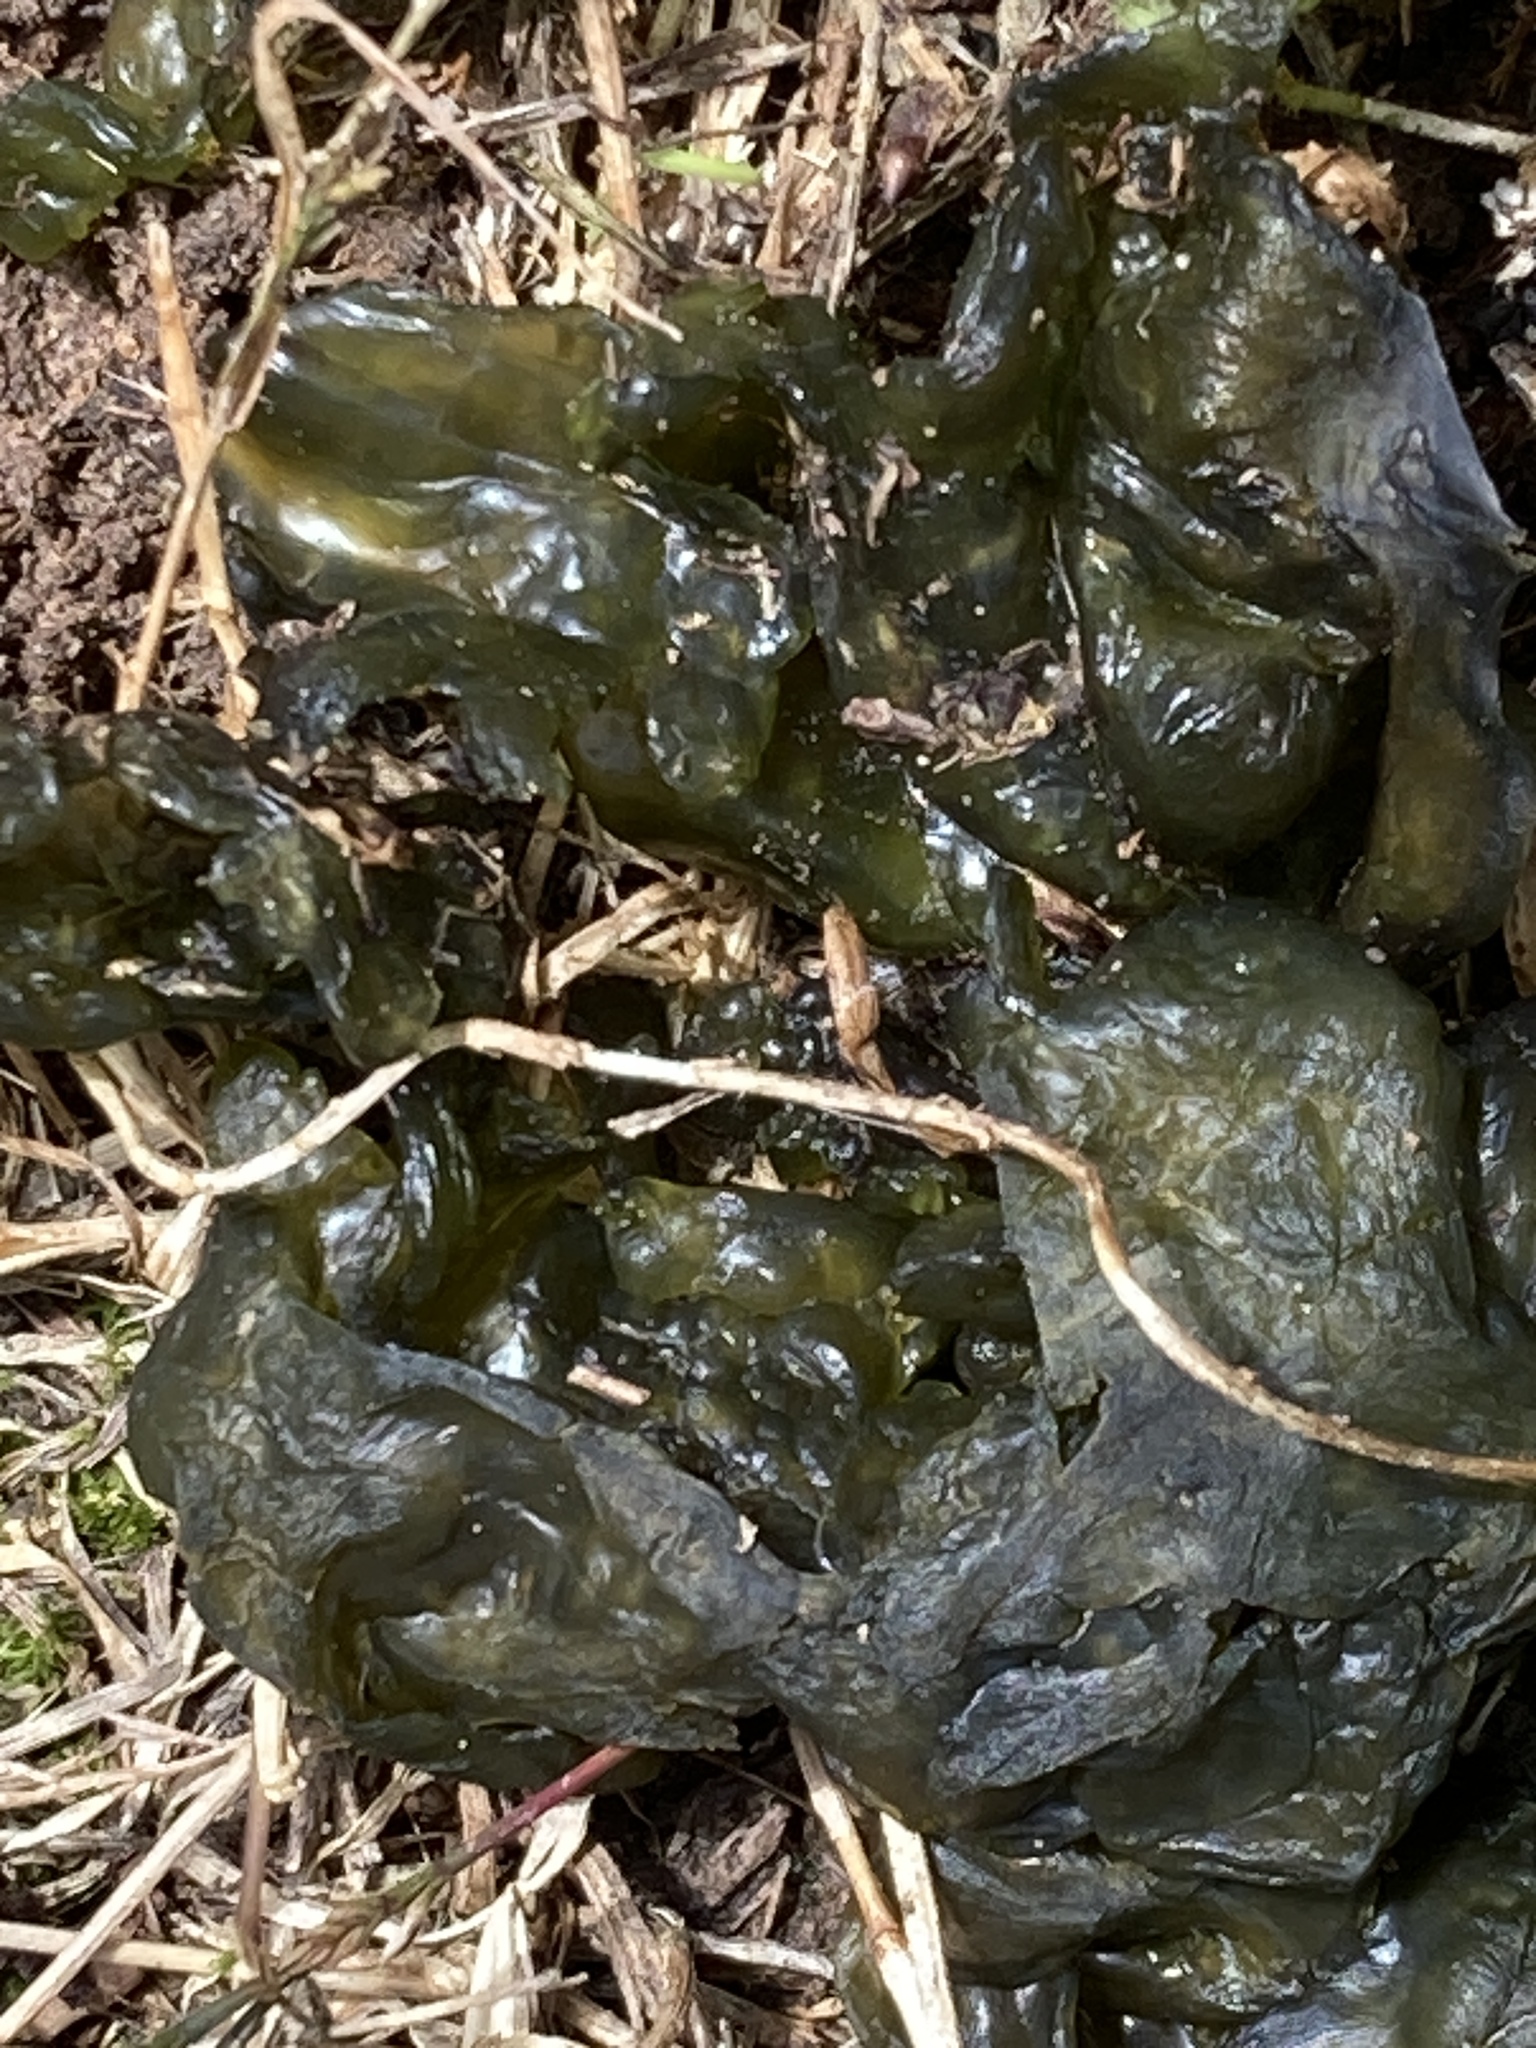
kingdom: Bacteria
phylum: Cyanobacteria
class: Cyanobacteriia
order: Cyanobacteriales
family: Nostocaceae
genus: Nostoc
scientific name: Nostoc commune
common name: Star jelly
